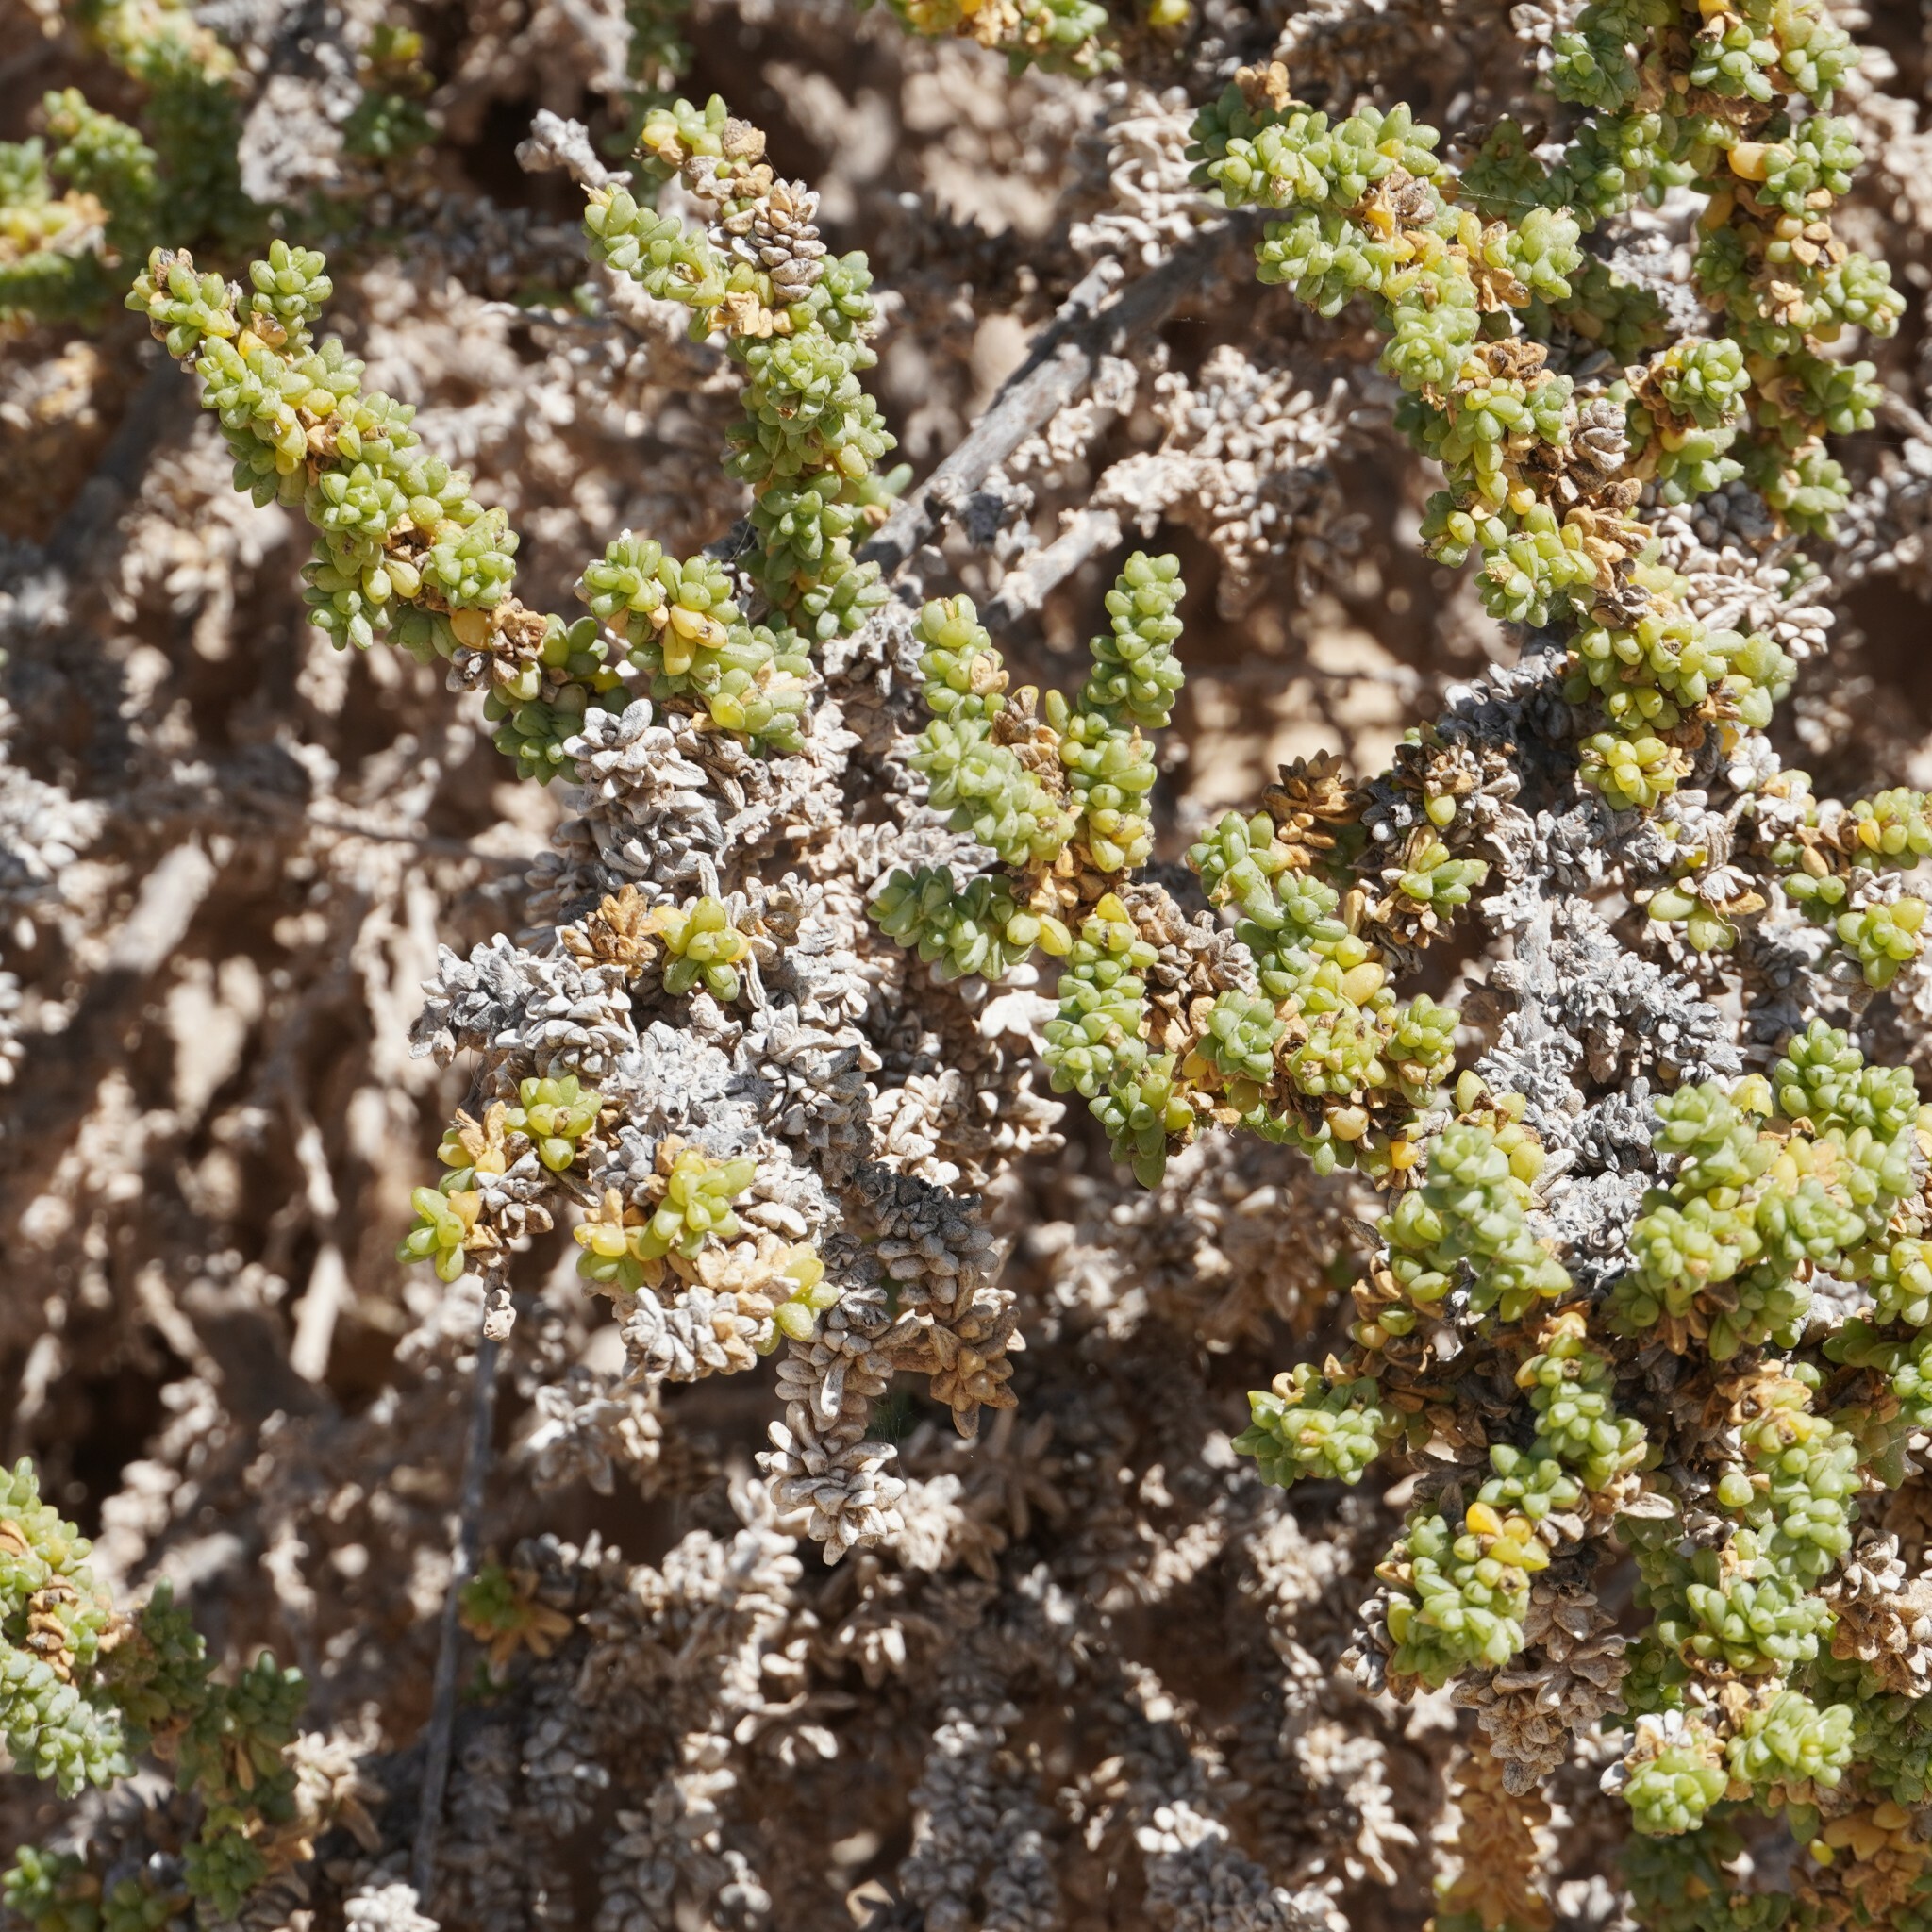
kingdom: Plantae
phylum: Tracheophyta
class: Magnoliopsida
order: Caryophyllales
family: Amaranthaceae
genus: Traganum
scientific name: Traganum moquinii
